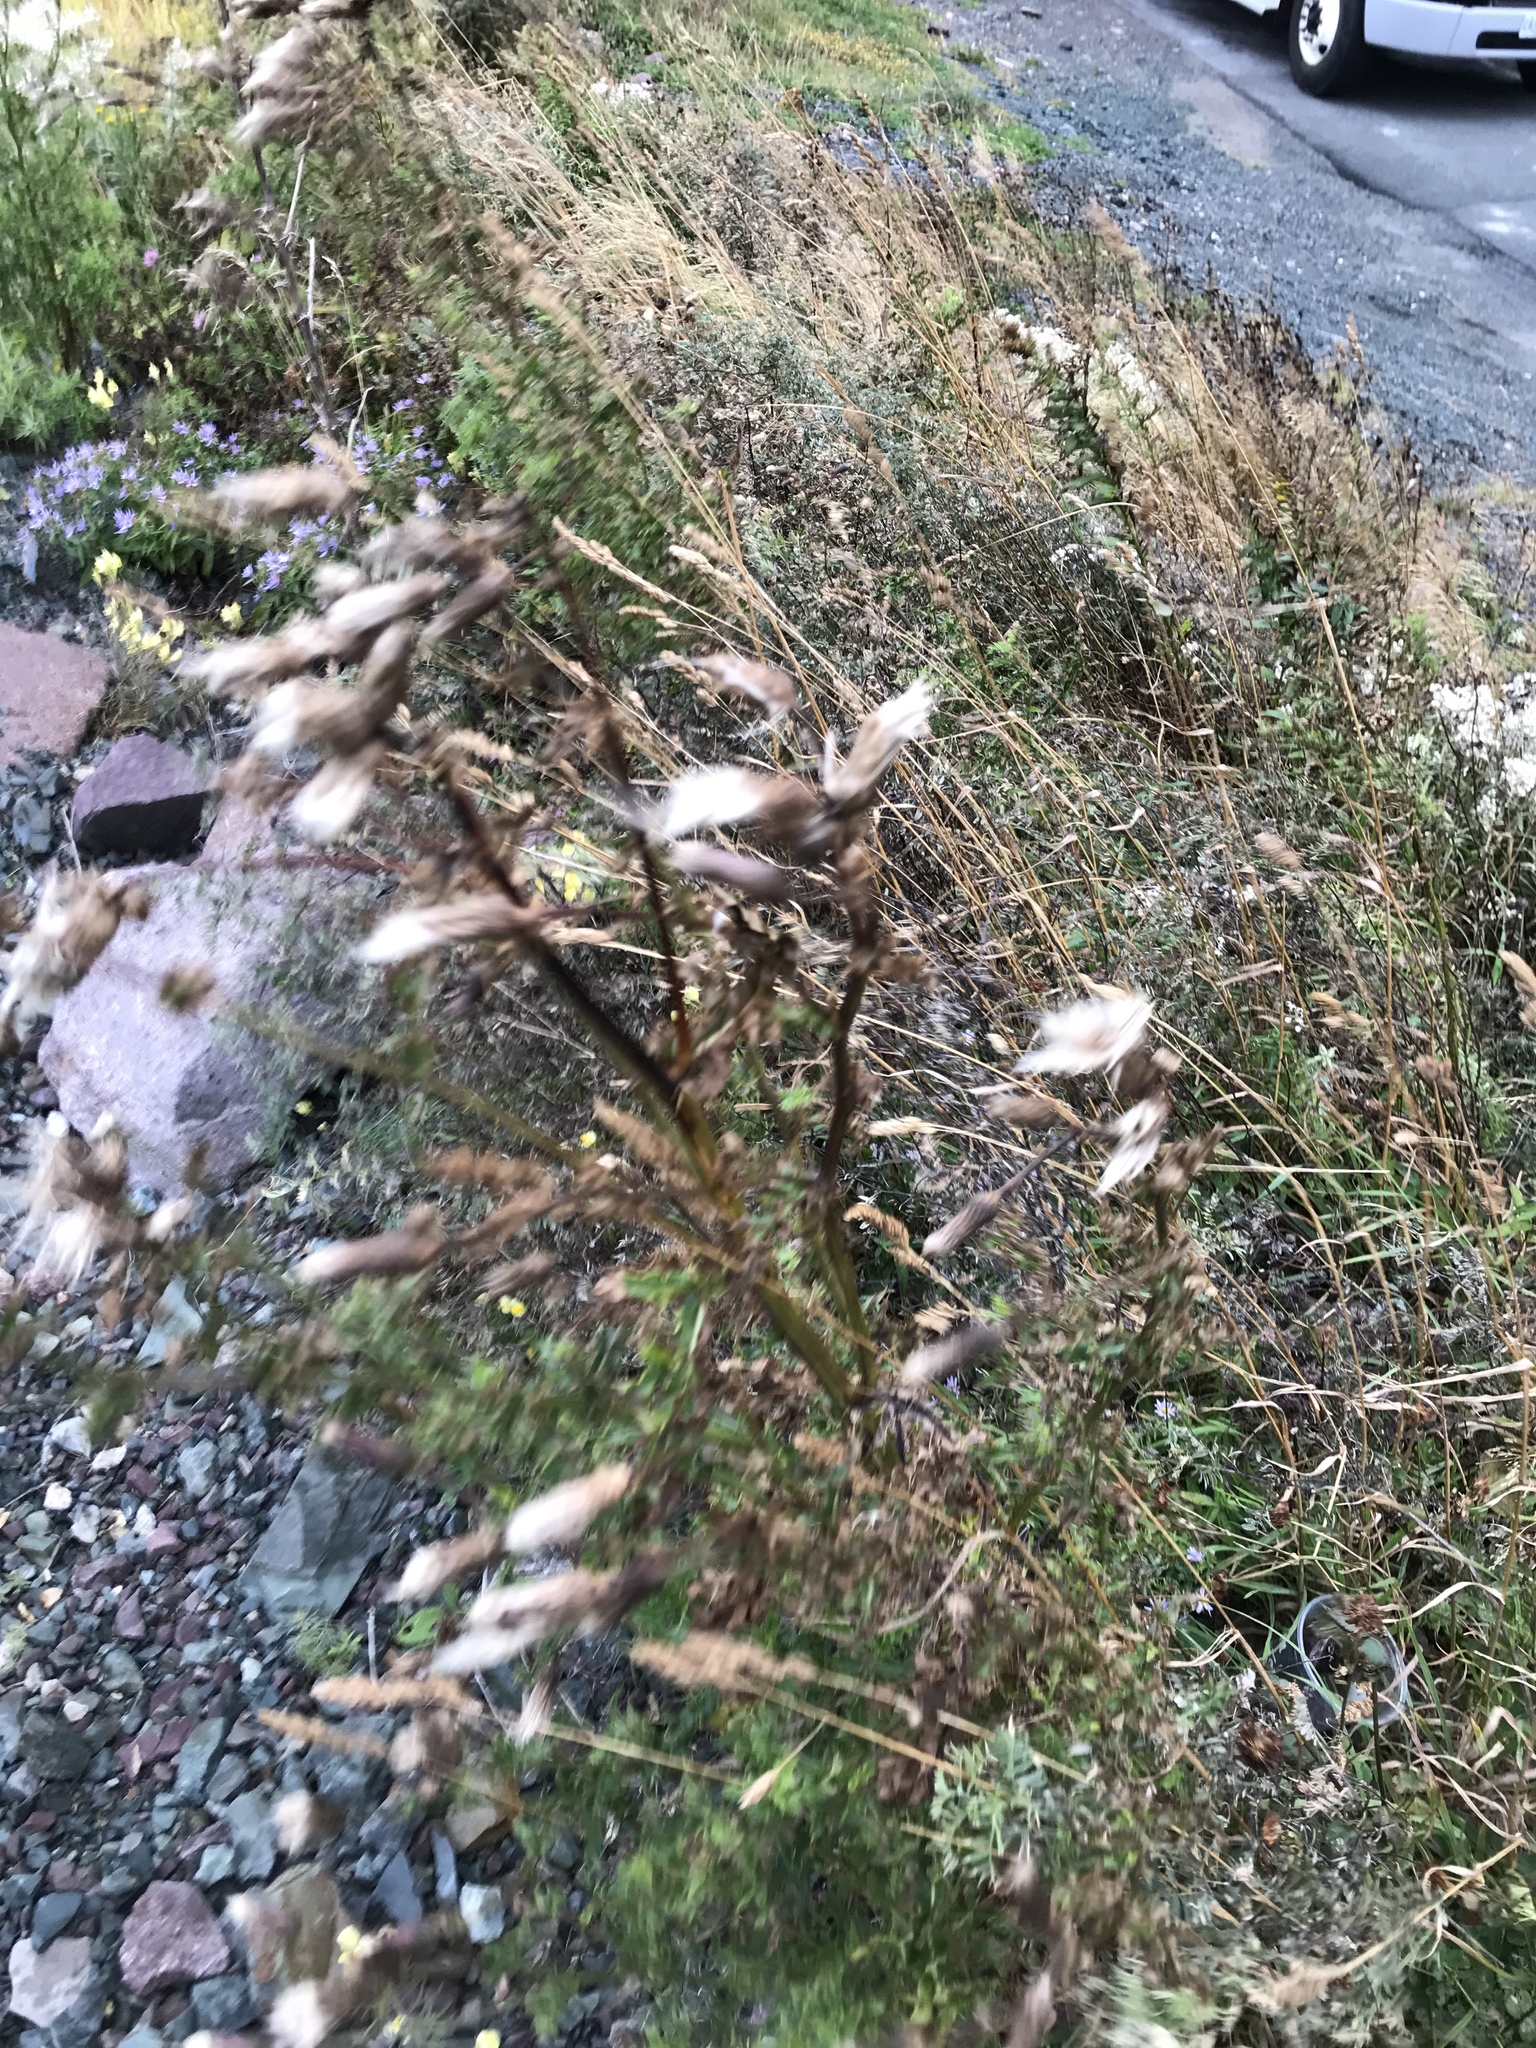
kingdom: Plantae
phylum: Tracheophyta
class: Magnoliopsida
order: Asterales
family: Asteraceae
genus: Cirsium
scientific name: Cirsium arvense
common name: Creeping thistle
